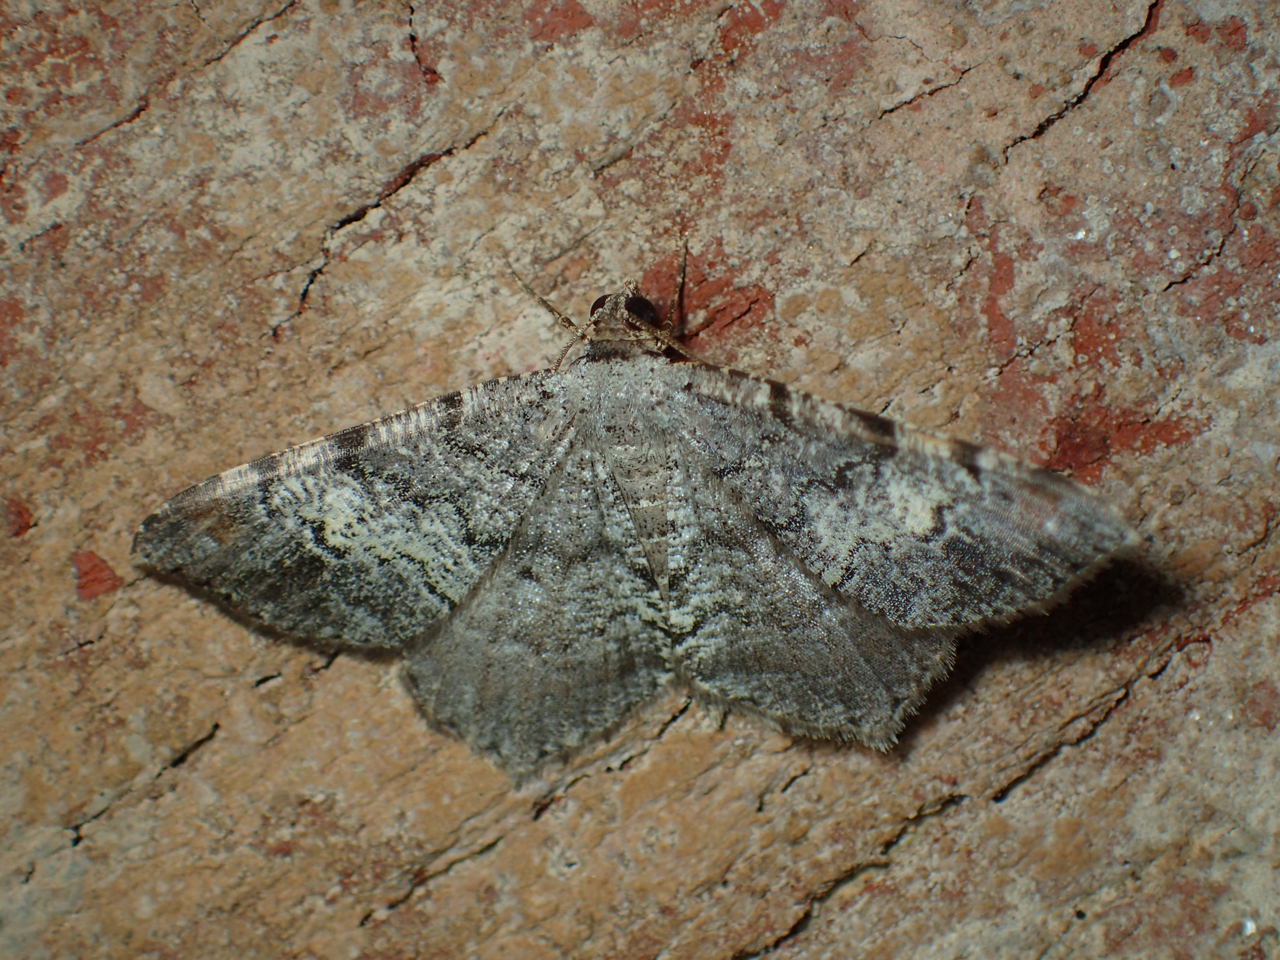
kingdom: Animalia
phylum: Arthropoda
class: Insecta
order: Lepidoptera
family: Geometridae
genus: Macaria
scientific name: Macaria granitata
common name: Granite moth
